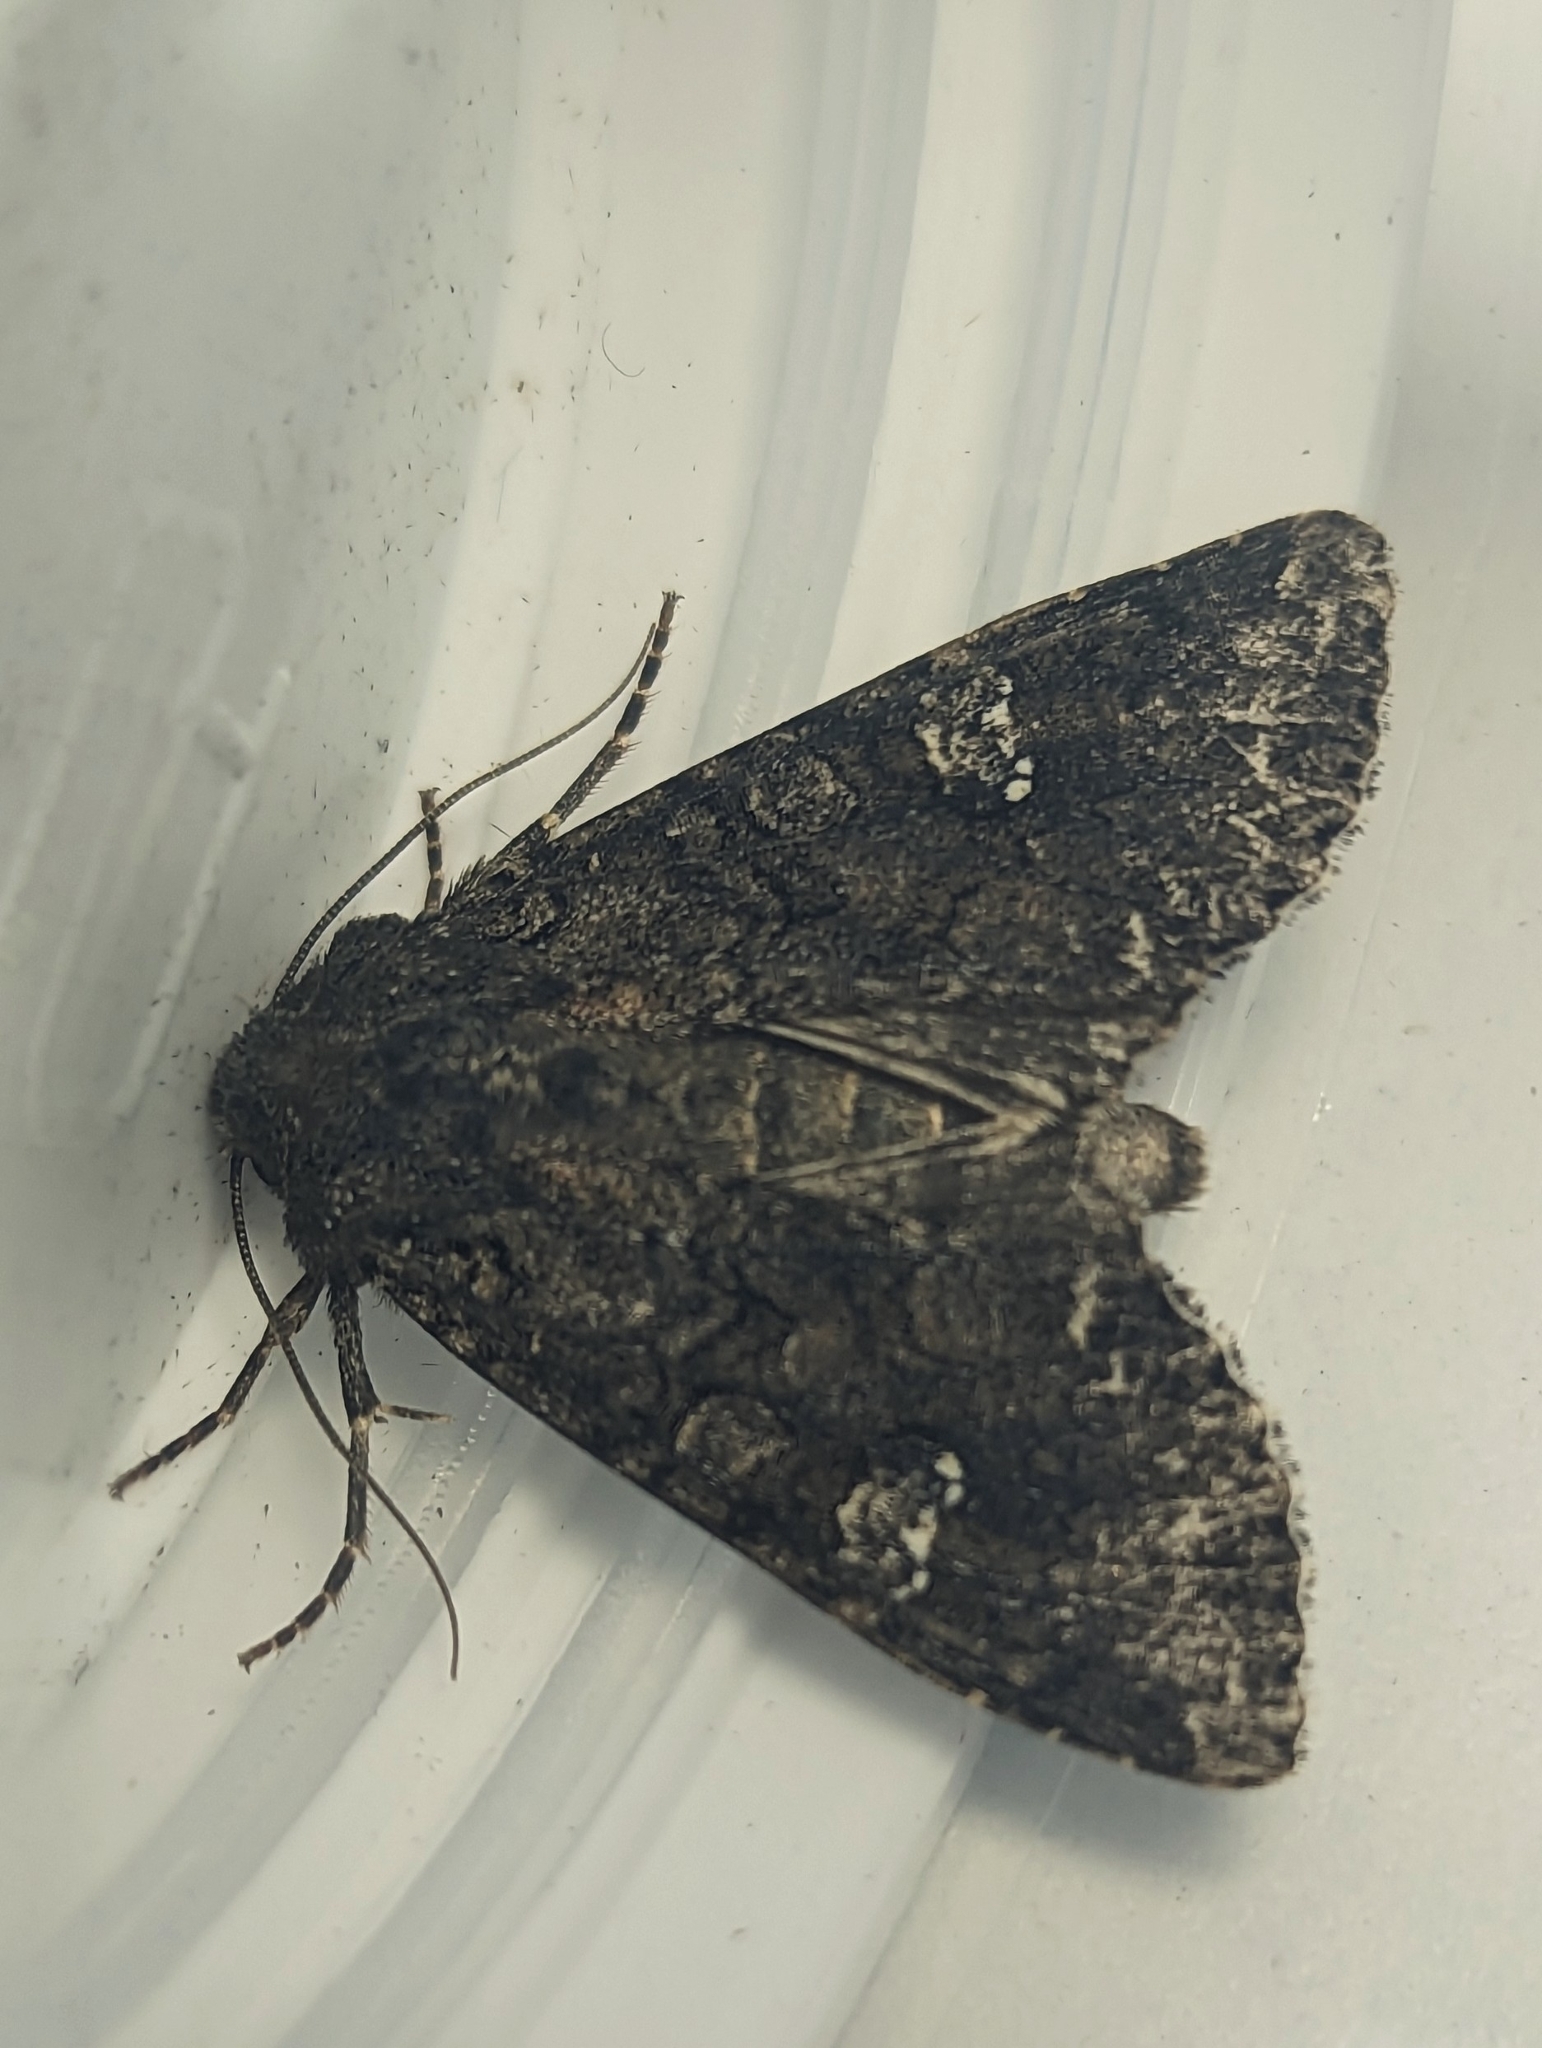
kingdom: Animalia
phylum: Arthropoda
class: Insecta
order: Lepidoptera
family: Noctuidae
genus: Mamestra
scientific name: Mamestra brassicae
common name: Cabbage moth
